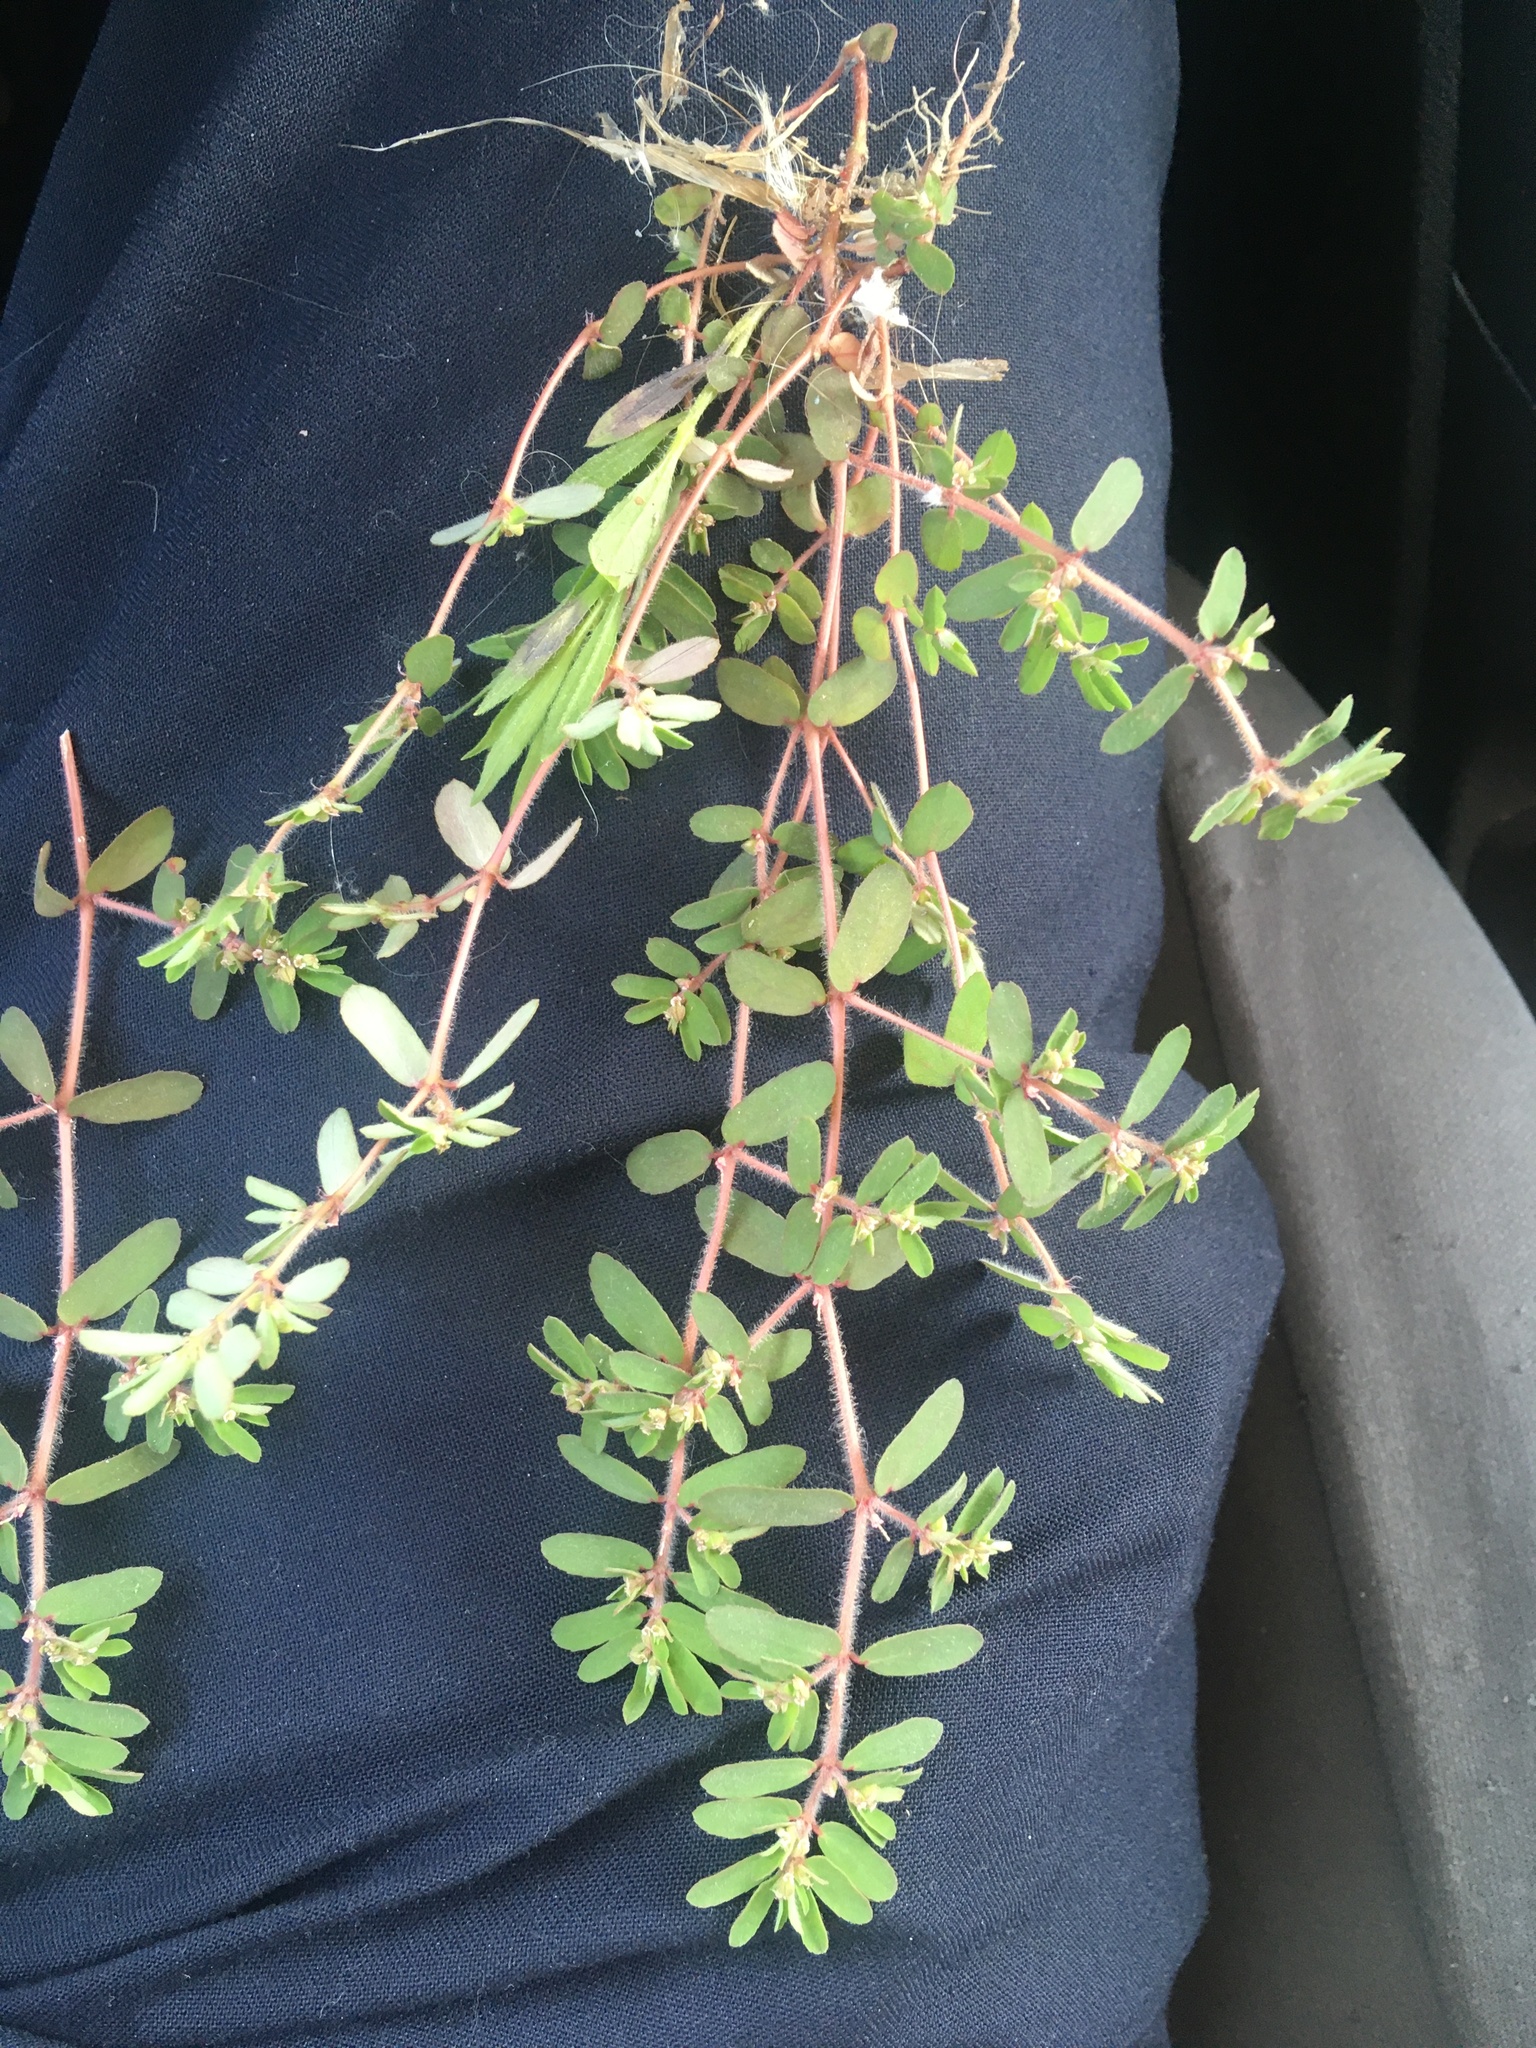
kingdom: Plantae
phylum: Tracheophyta
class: Magnoliopsida
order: Malpighiales
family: Euphorbiaceae
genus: Euphorbia
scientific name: Euphorbia maculata
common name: Spotted spurge
